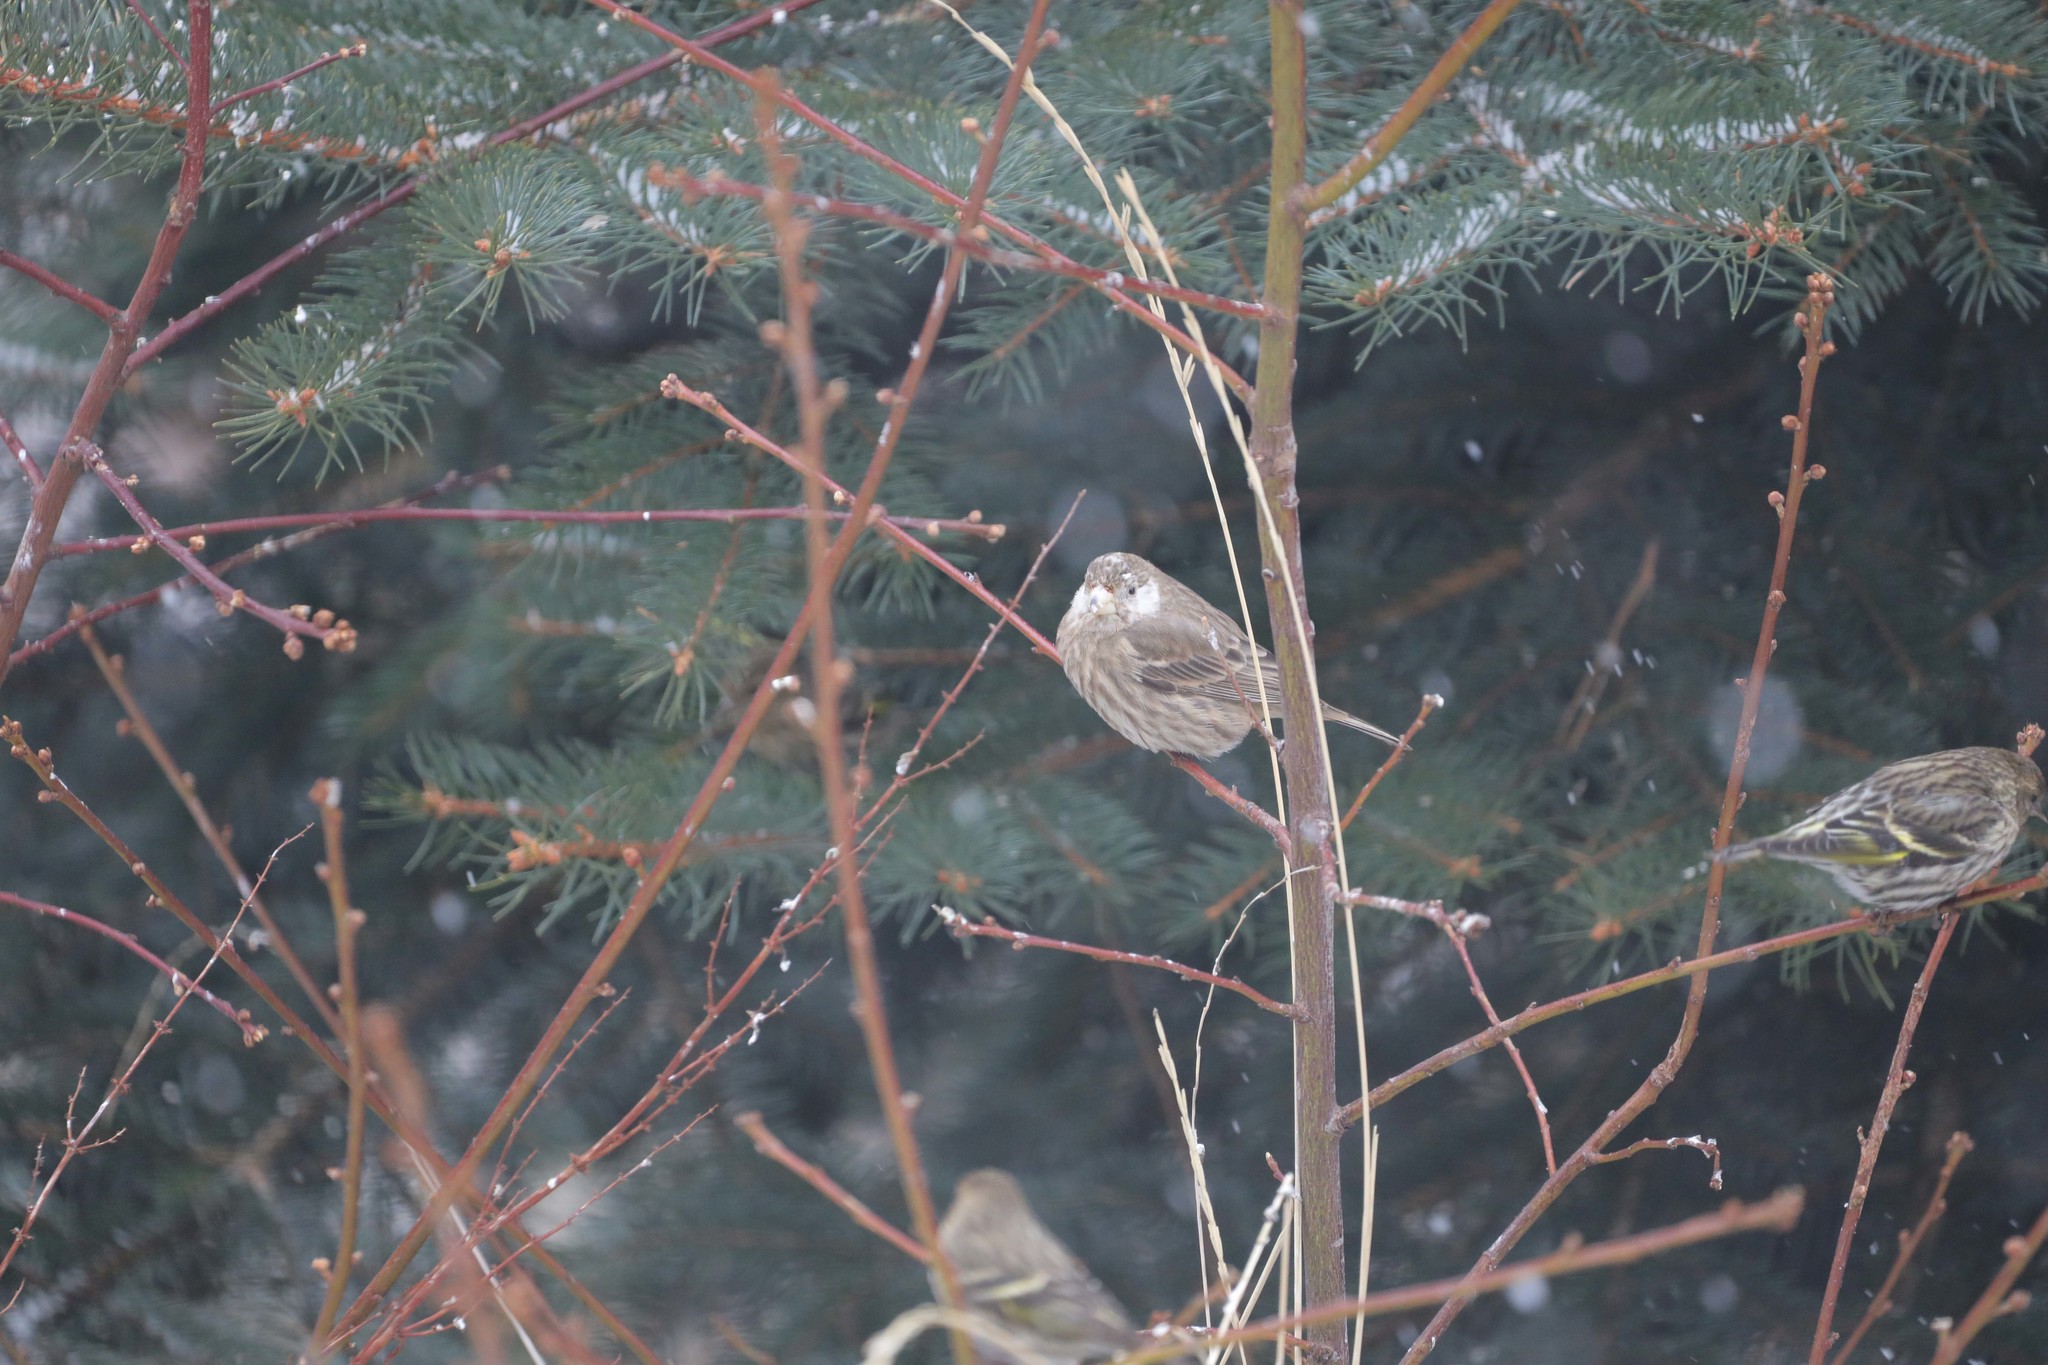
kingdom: Animalia
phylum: Chordata
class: Aves
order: Passeriformes
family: Fringillidae
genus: Haemorhous
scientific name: Haemorhous mexicanus
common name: House finch
